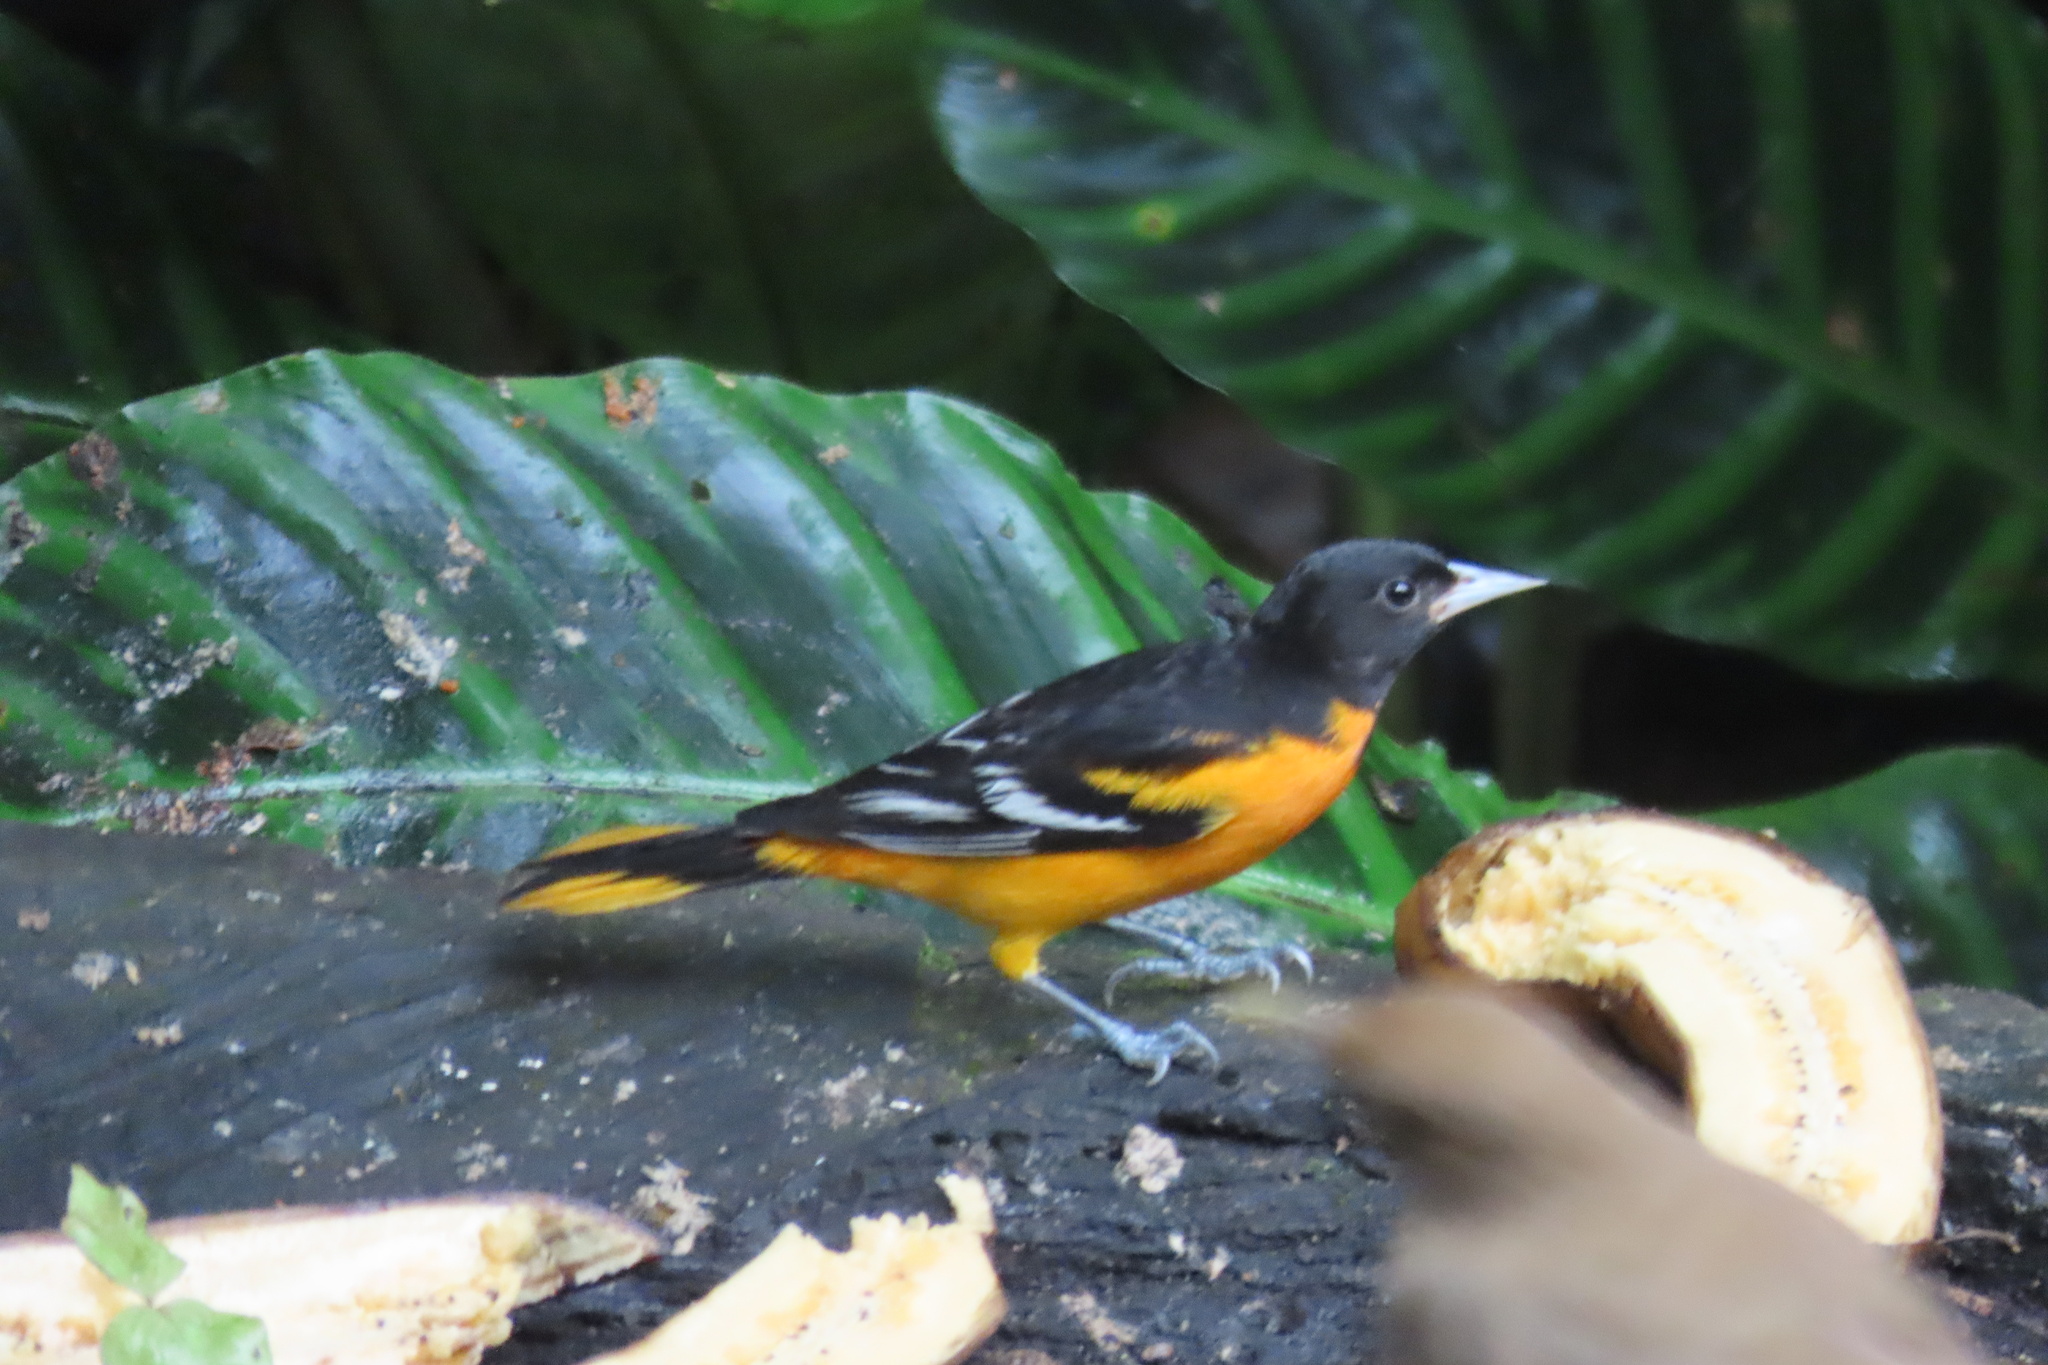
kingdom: Animalia
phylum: Chordata
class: Aves
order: Passeriformes
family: Icteridae
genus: Icterus
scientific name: Icterus galbula
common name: Baltimore oriole
